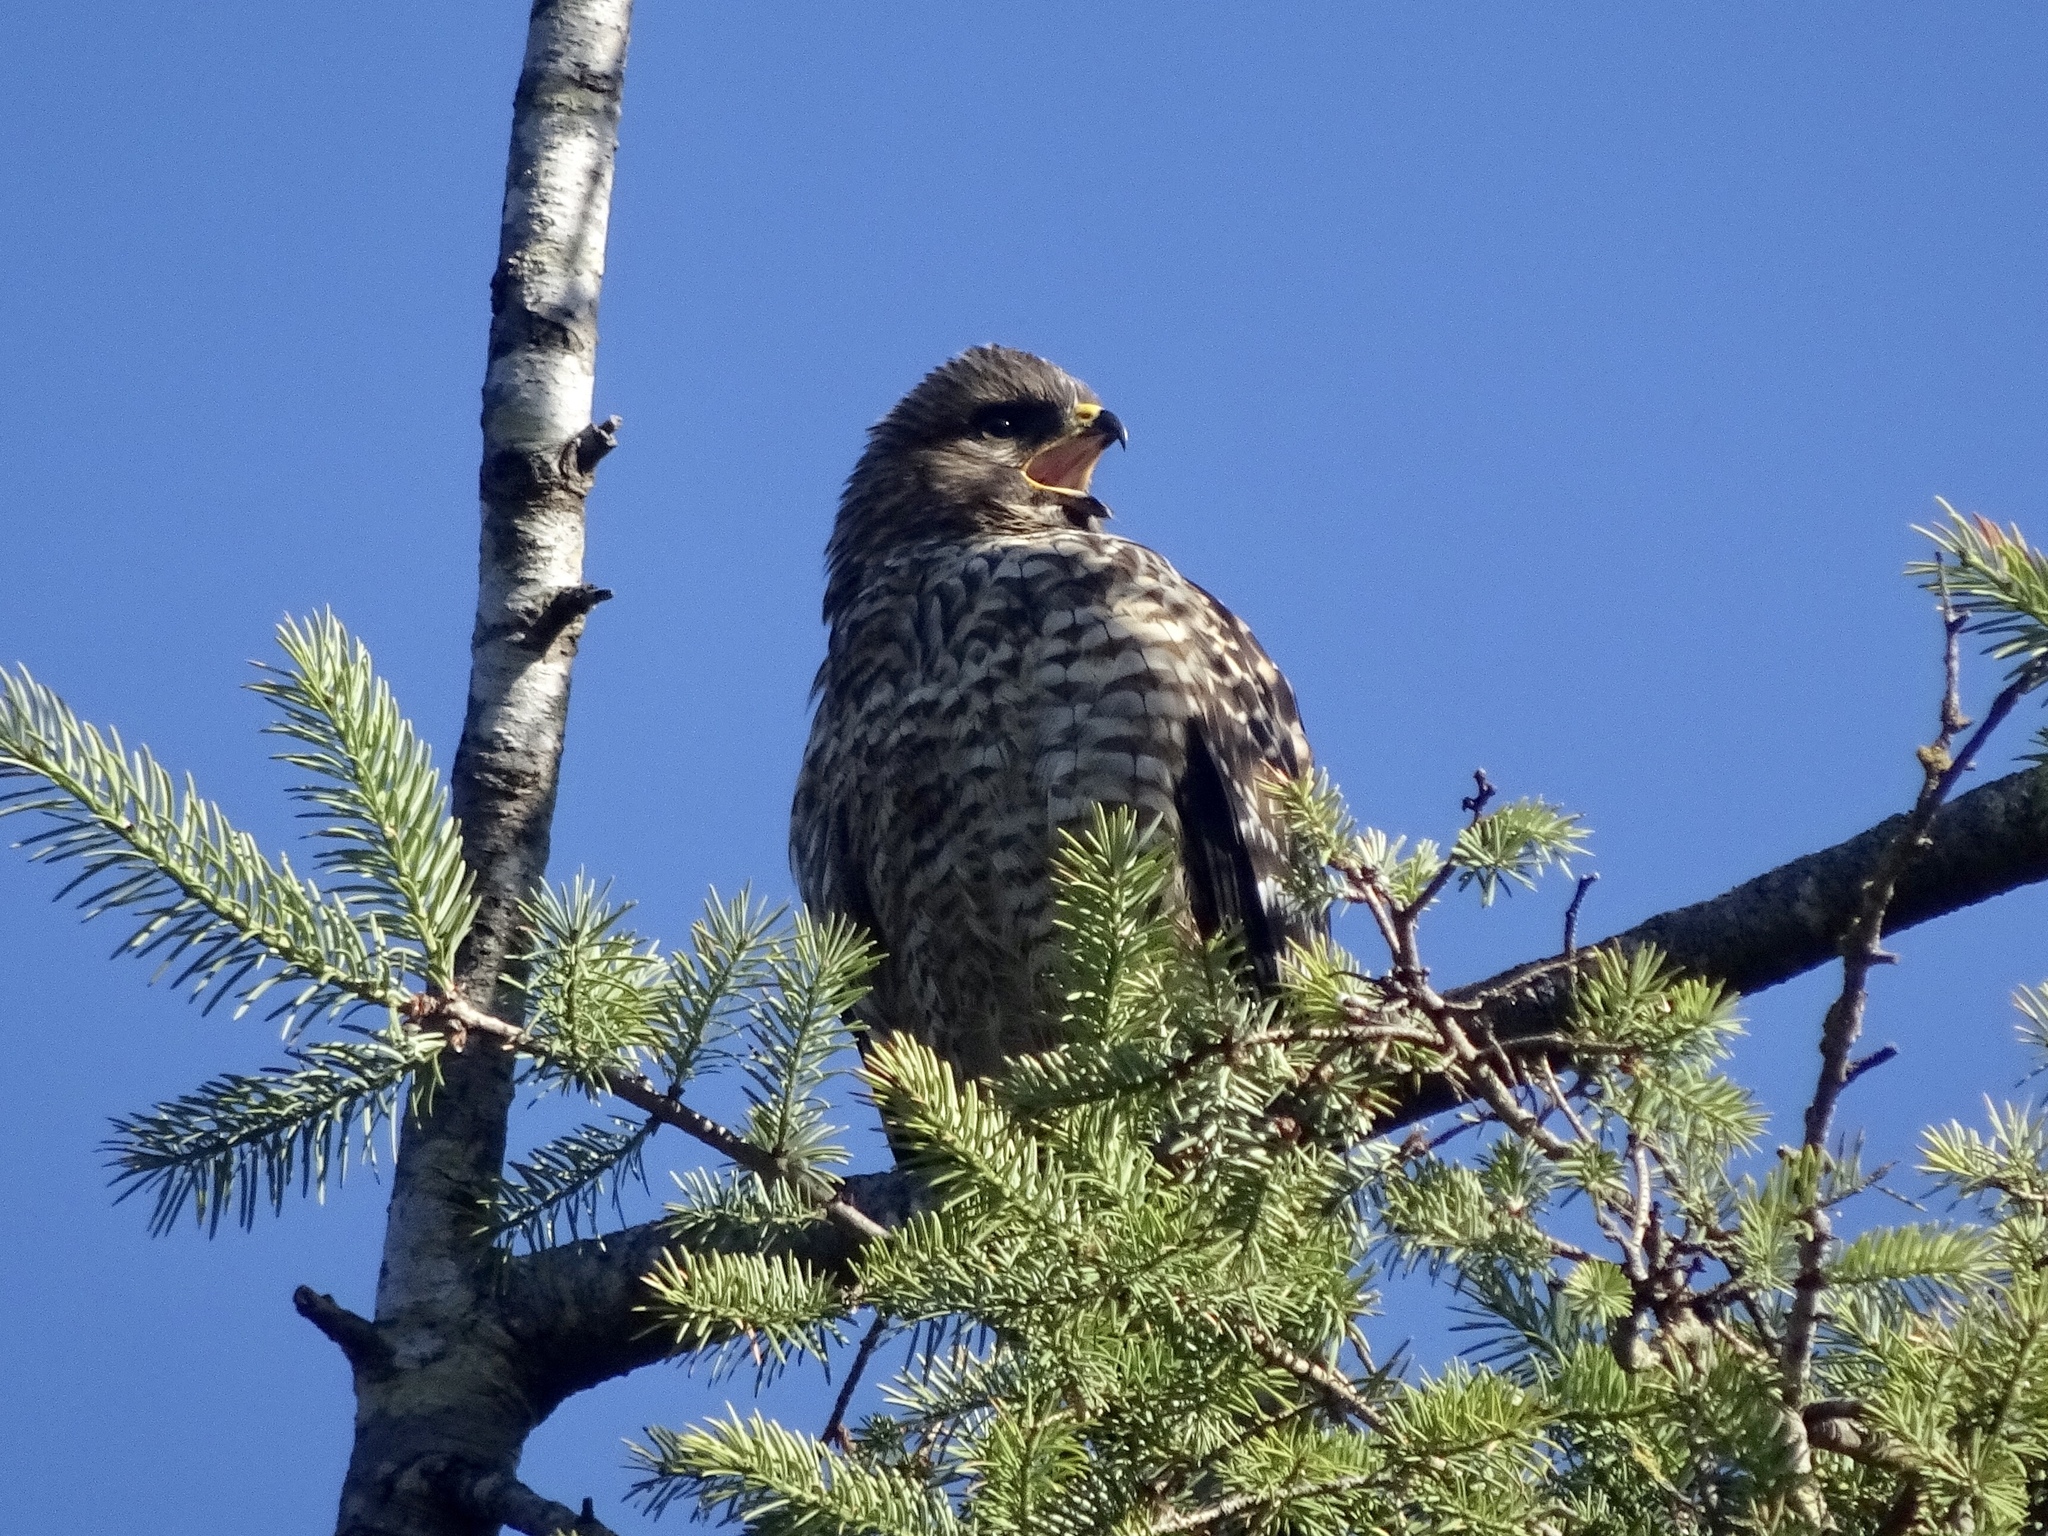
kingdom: Animalia
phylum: Chordata
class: Aves
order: Accipitriformes
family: Accipitridae
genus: Buteo
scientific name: Buteo lineatus
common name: Red-shouldered hawk
